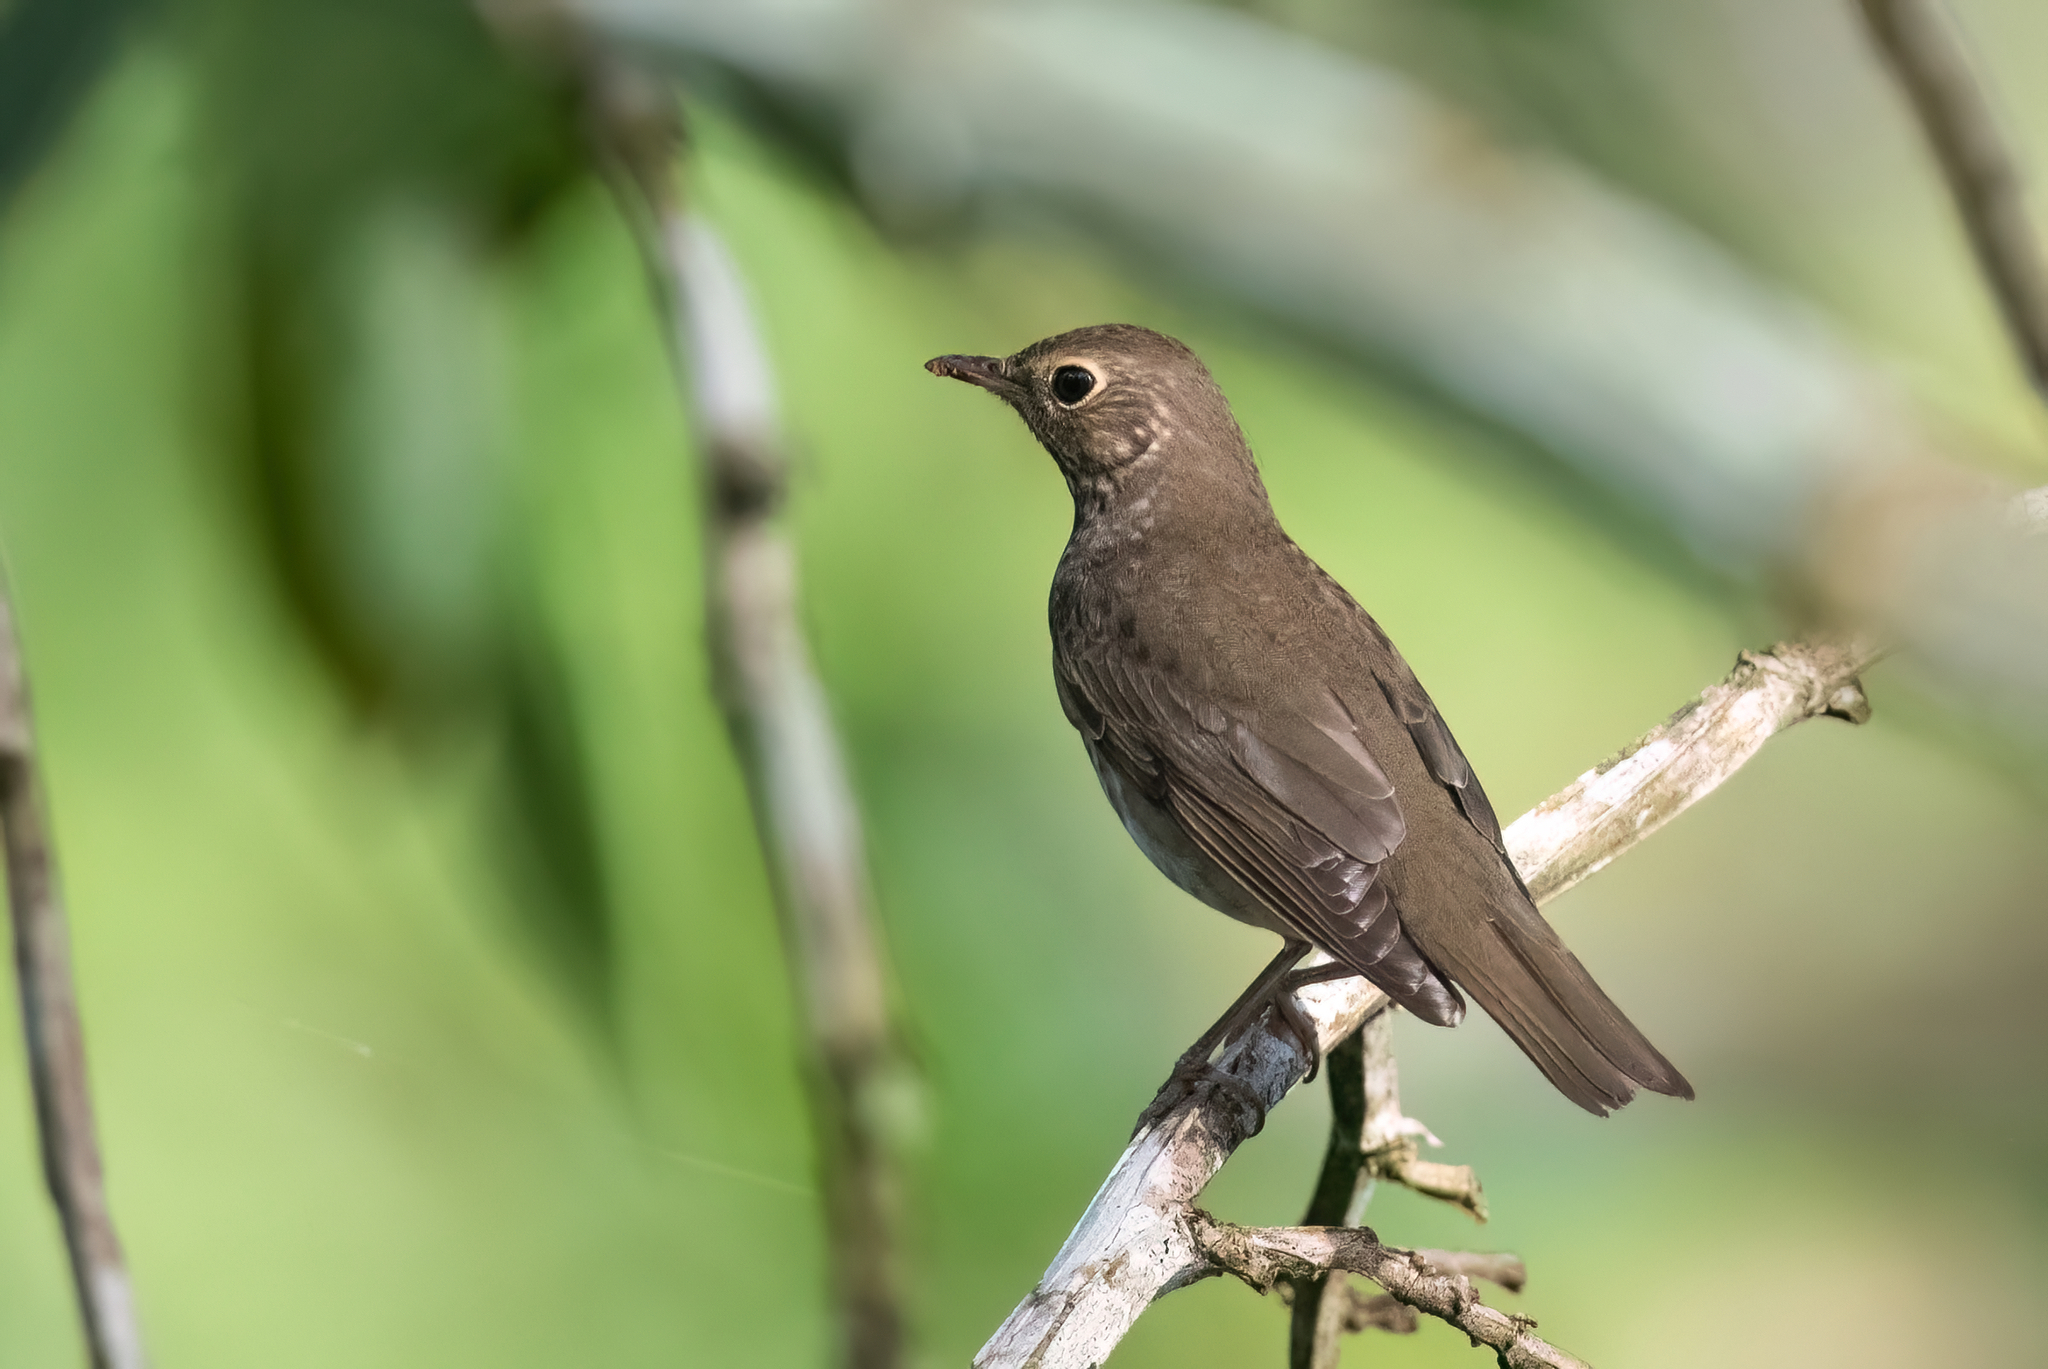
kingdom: Animalia
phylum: Chordata
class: Aves
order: Passeriformes
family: Turdidae
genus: Catharus
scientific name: Catharus ustulatus
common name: Swainson's thrush
